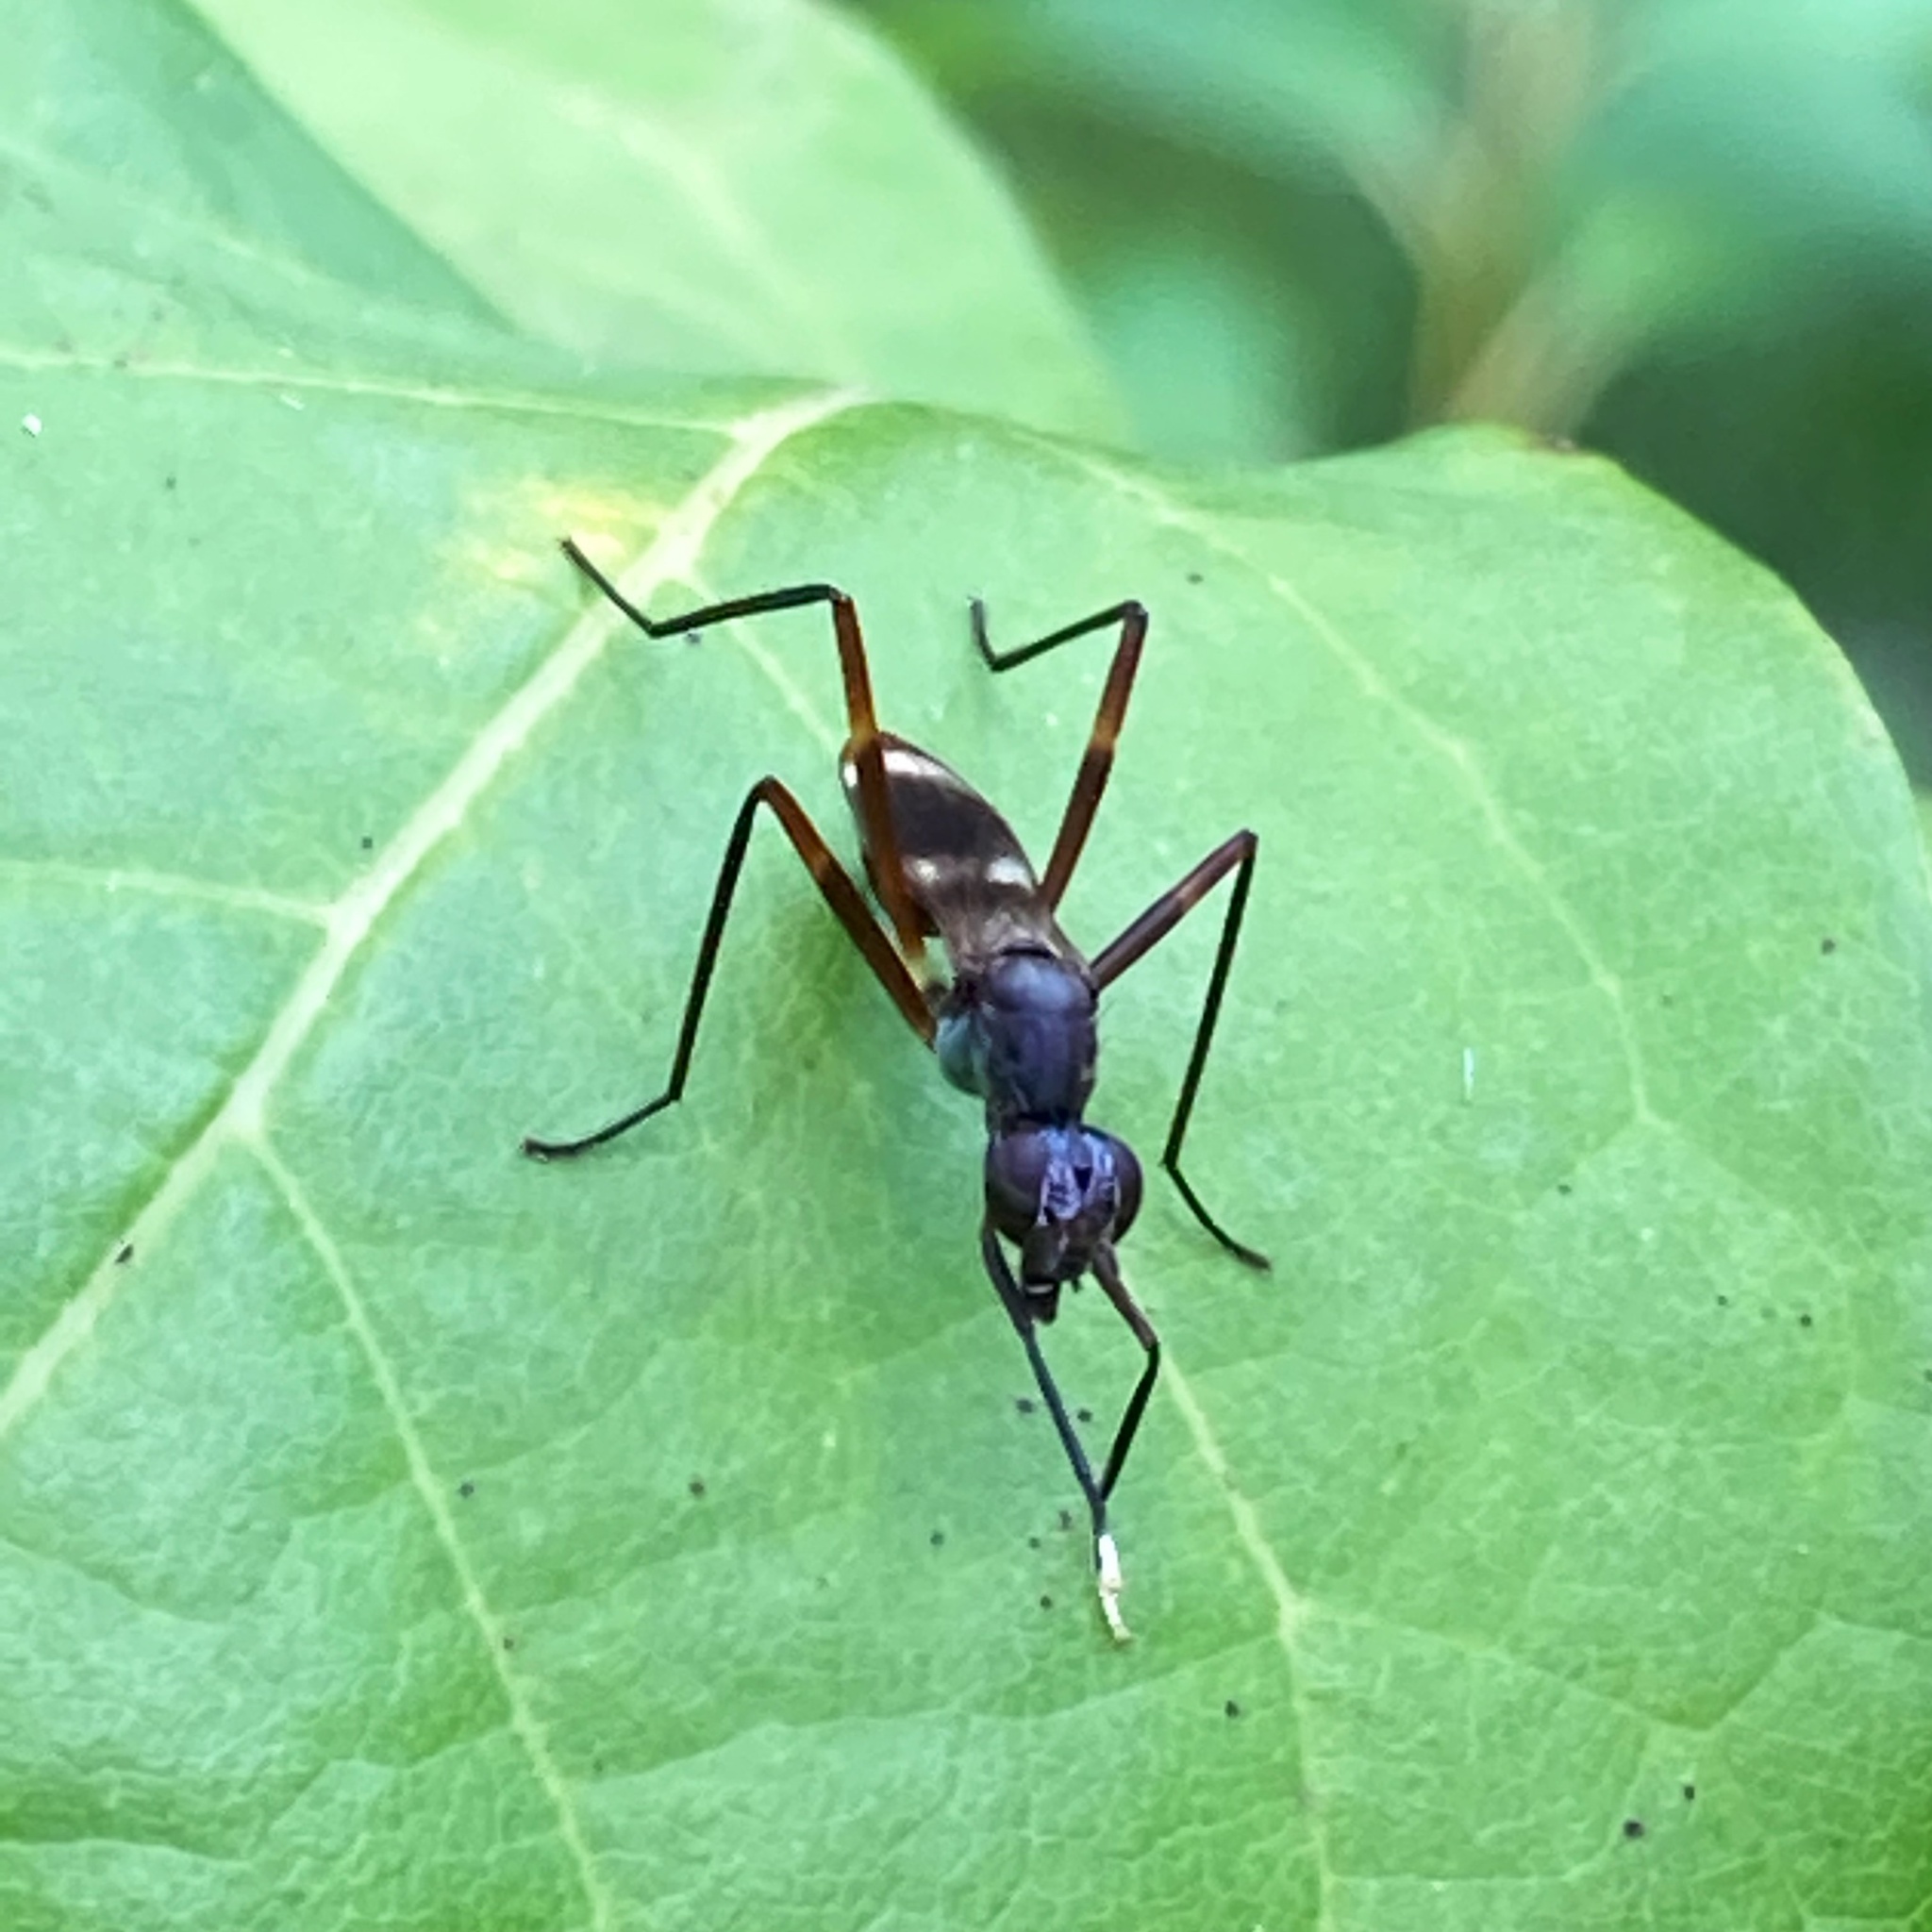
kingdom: Animalia
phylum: Arthropoda
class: Insecta
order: Diptera
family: Micropezidae
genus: Taeniaptera
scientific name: Taeniaptera trivittata
